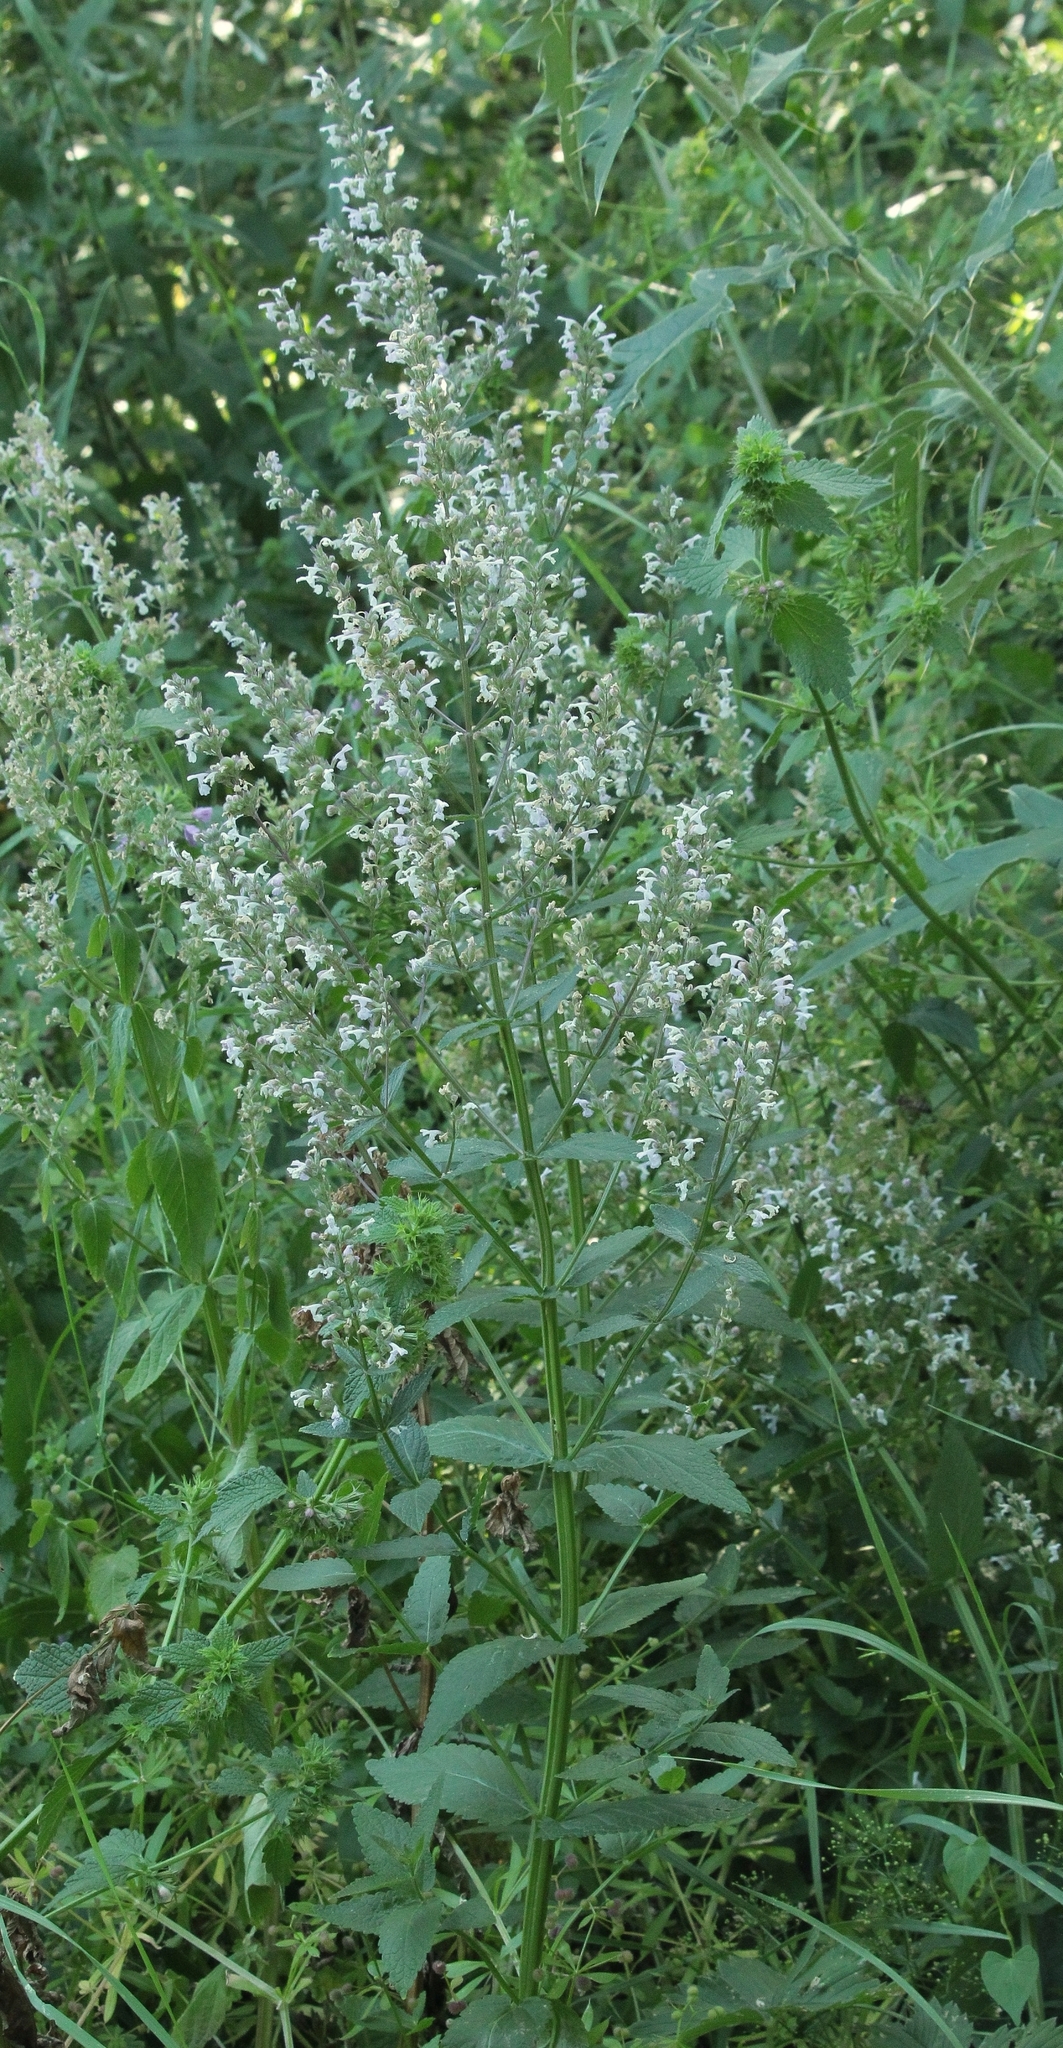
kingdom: Plantae
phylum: Tracheophyta
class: Magnoliopsida
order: Lamiales
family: Lamiaceae
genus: Nepeta
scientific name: Nepeta nuda
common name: Hairless catmint
